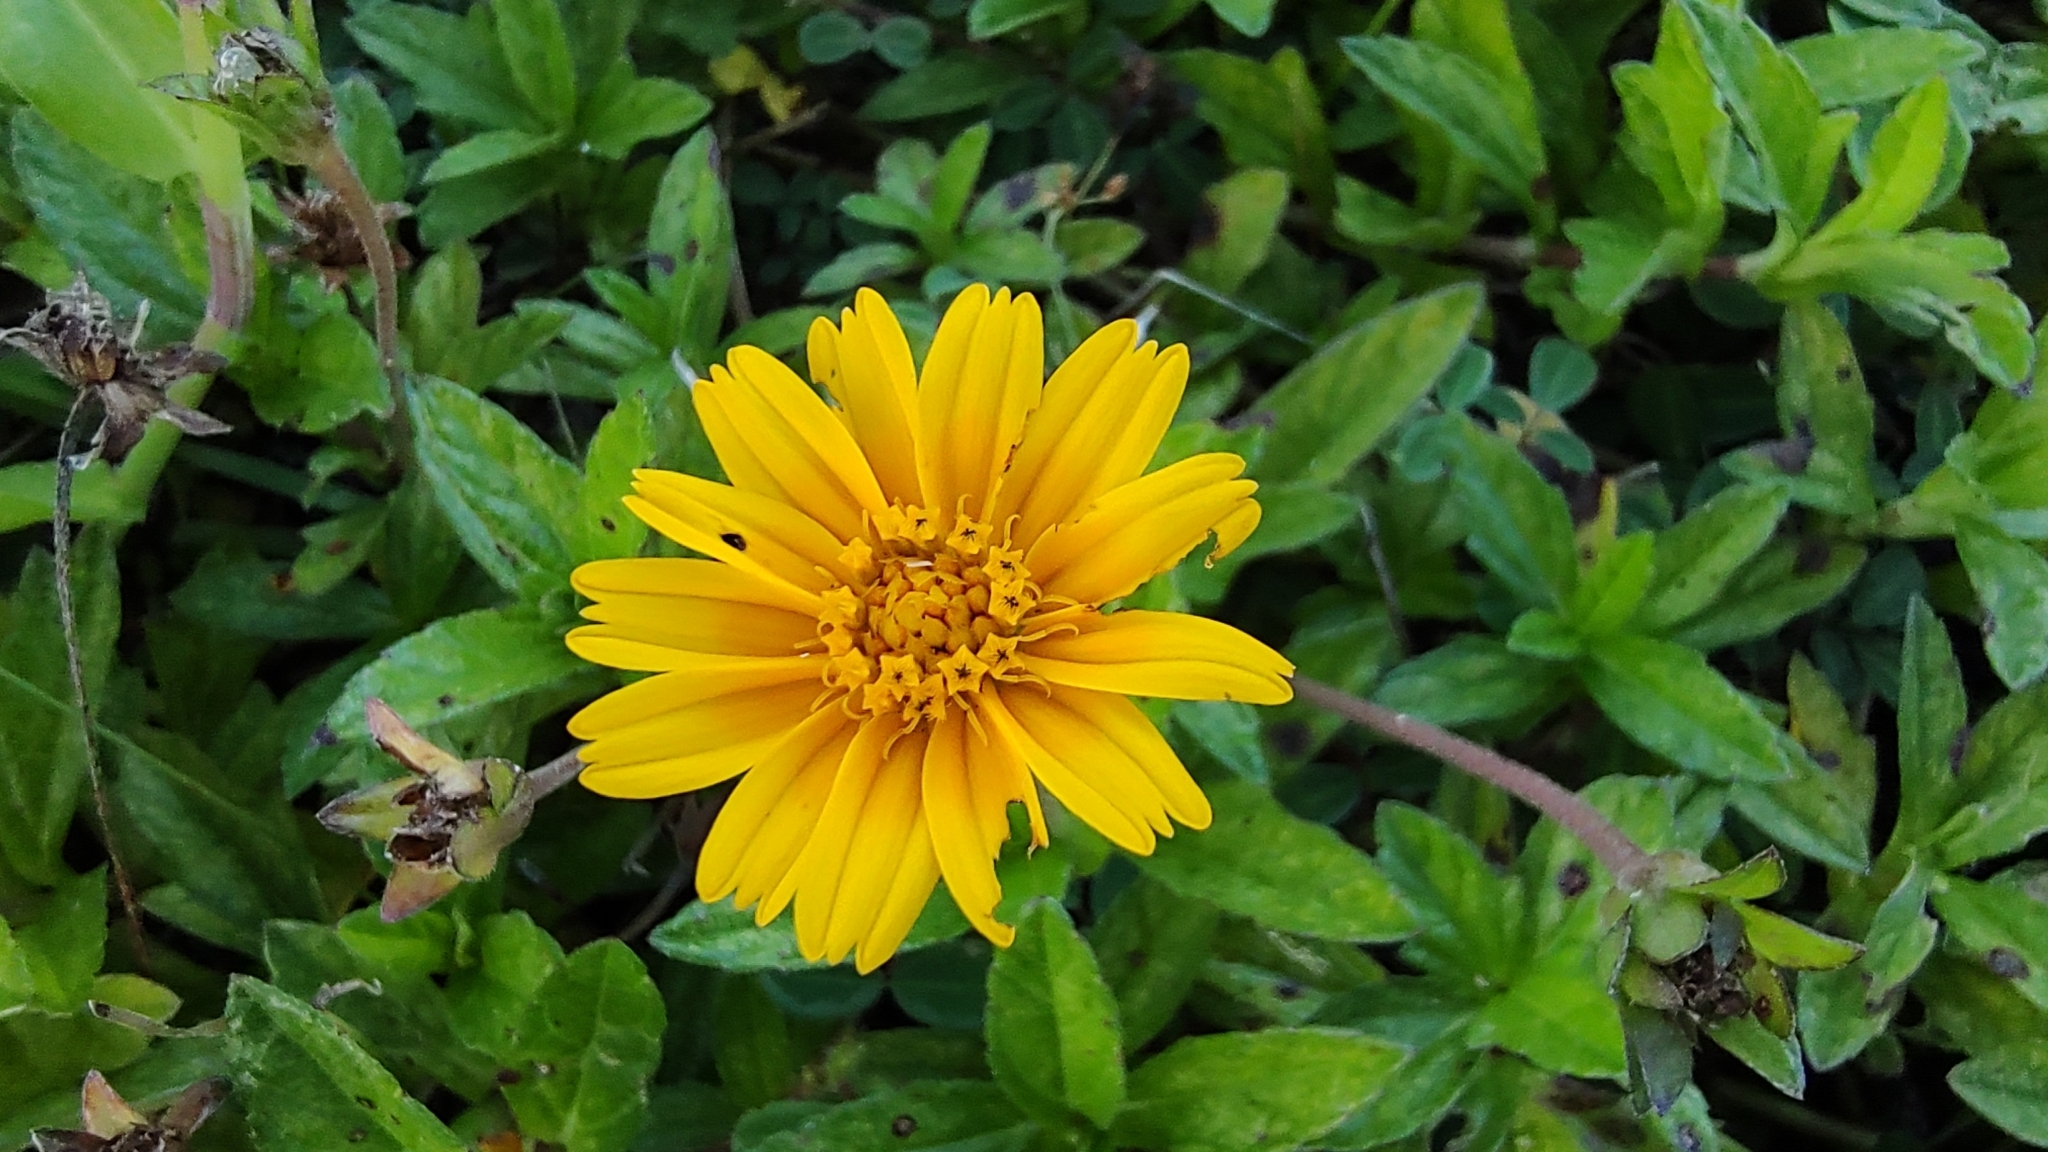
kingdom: Plantae
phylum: Tracheophyta
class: Magnoliopsida
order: Asterales
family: Asteraceae
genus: Sphagneticola
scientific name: Sphagneticola trilobata
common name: Bay biscayne creeping-oxeye
